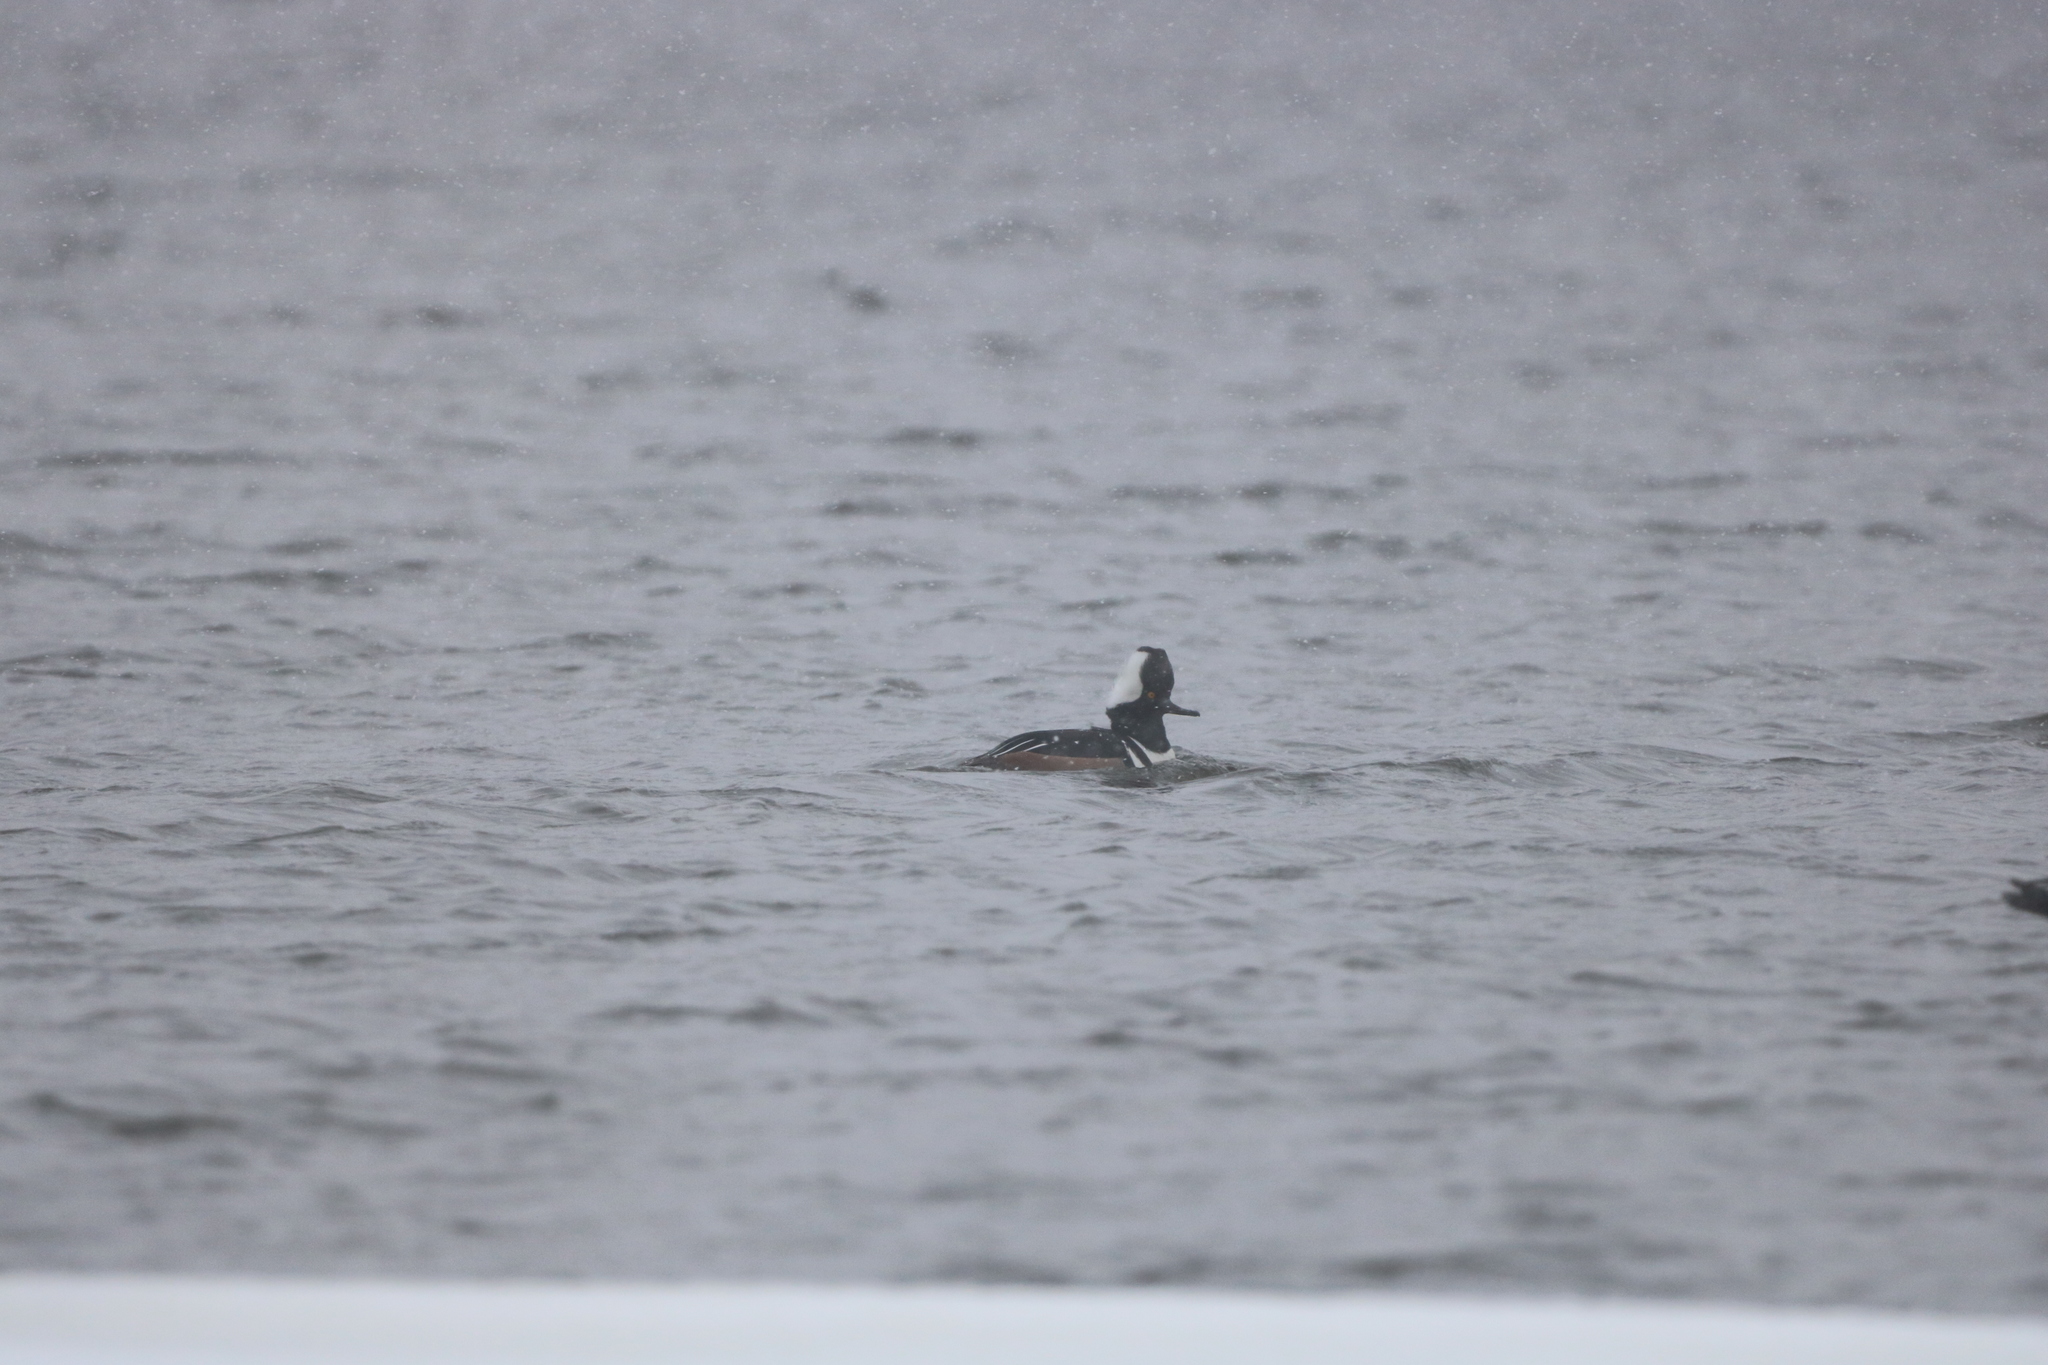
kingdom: Animalia
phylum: Chordata
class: Aves
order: Anseriformes
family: Anatidae
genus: Lophodytes
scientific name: Lophodytes cucullatus
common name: Hooded merganser
